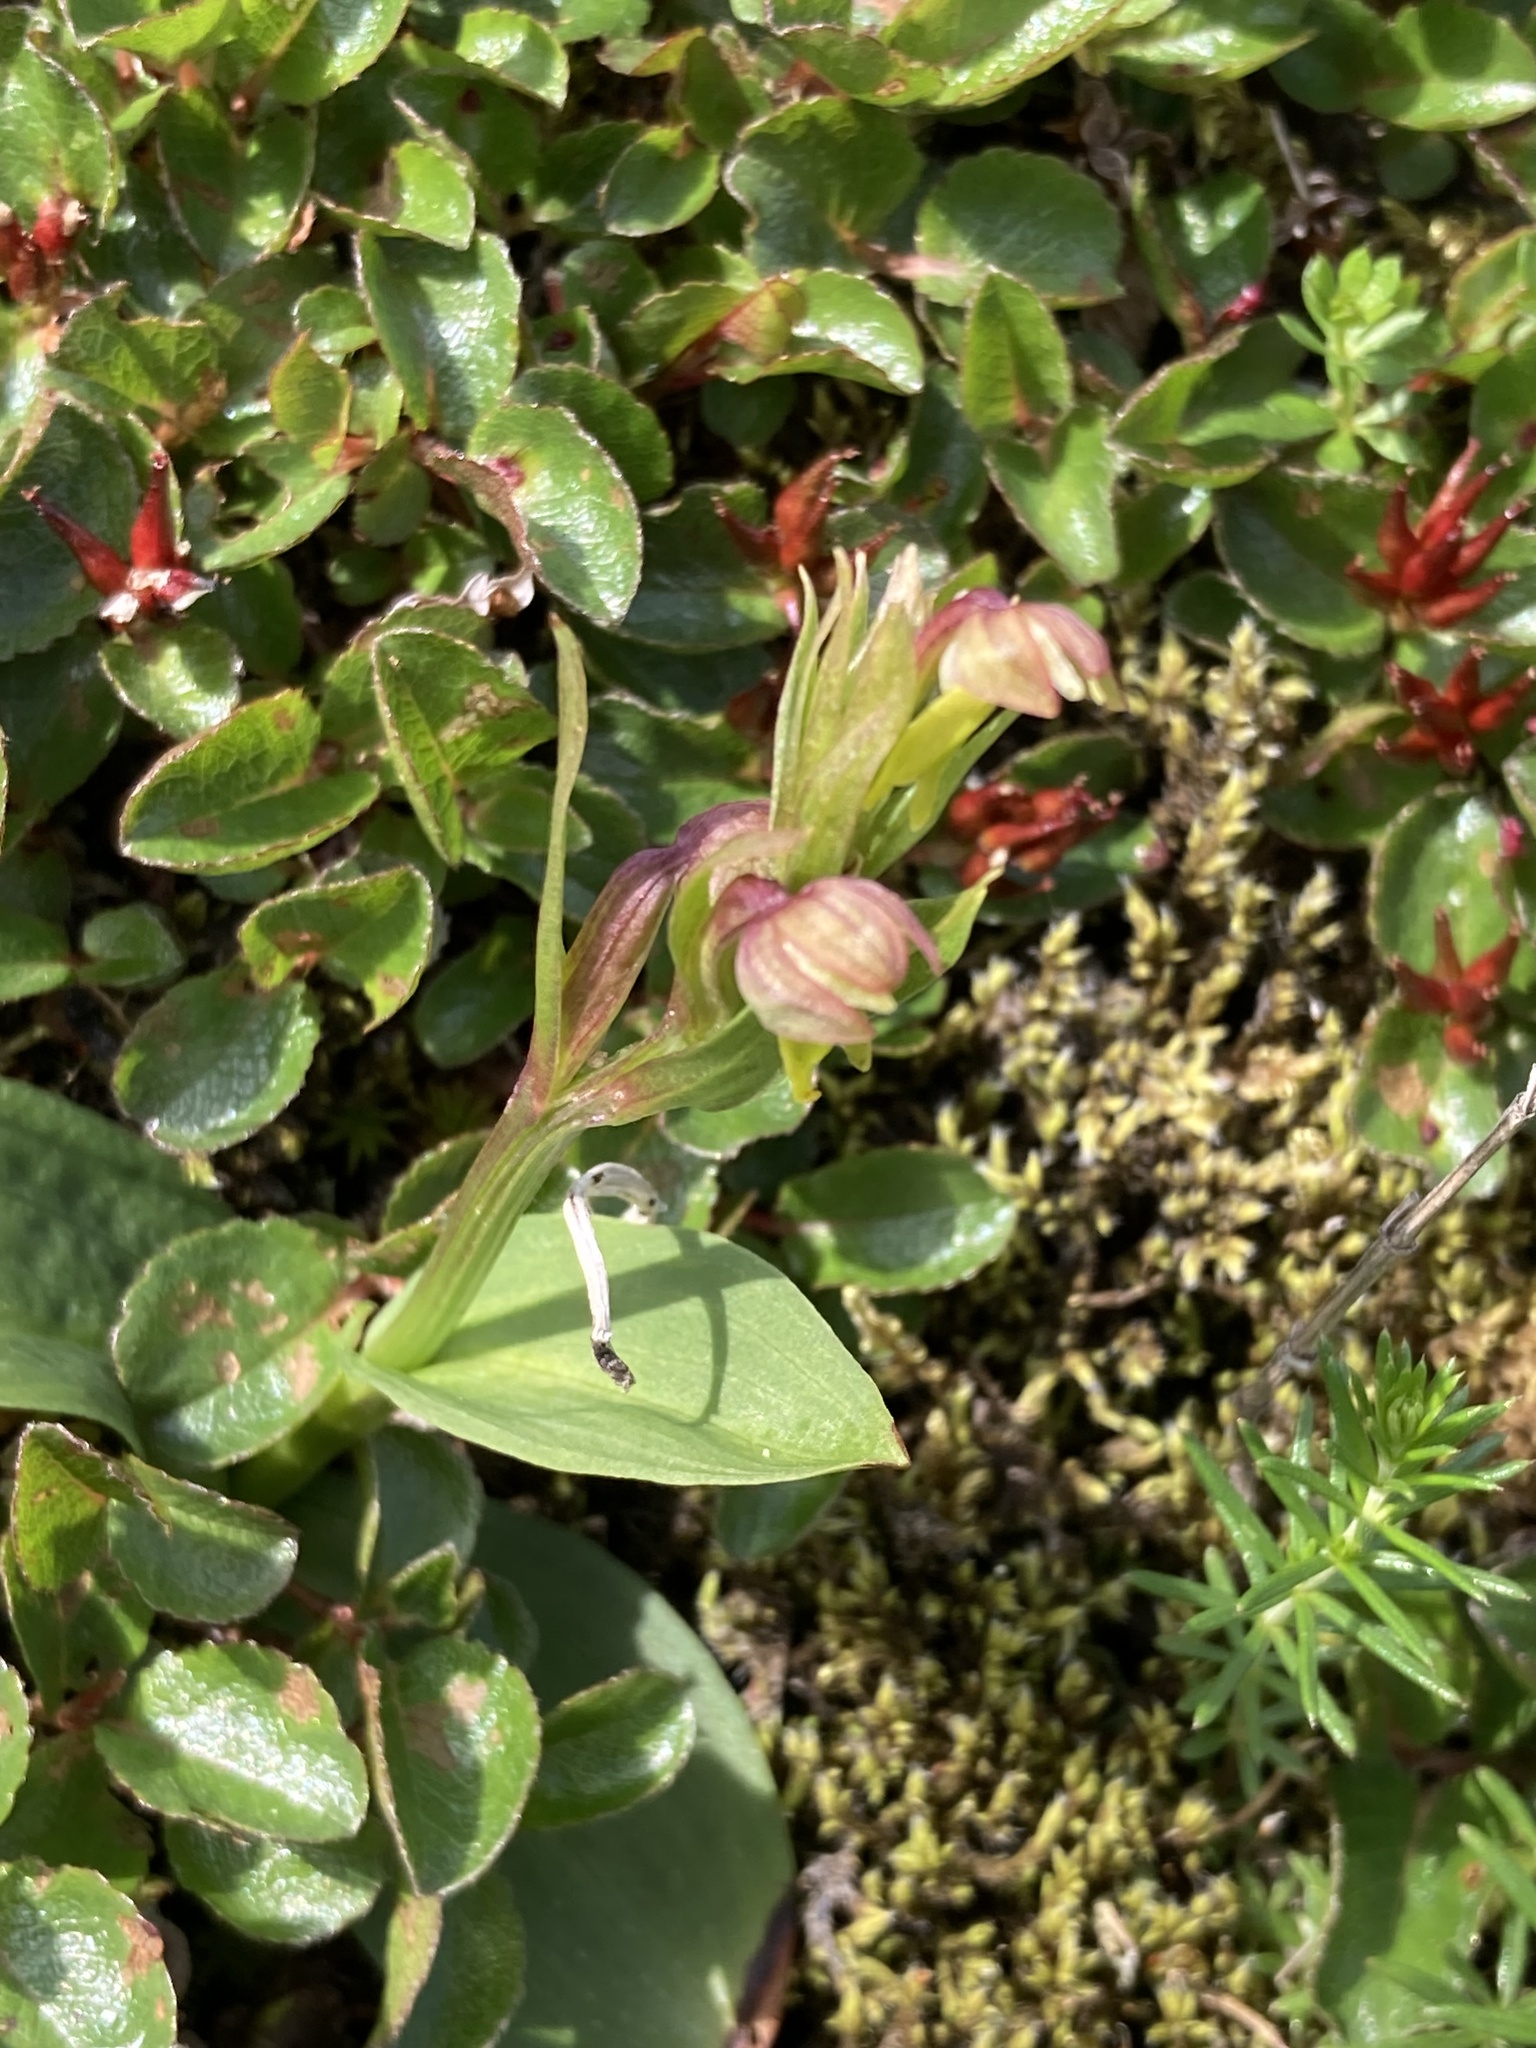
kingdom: Plantae
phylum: Tracheophyta
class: Liliopsida
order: Asparagales
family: Orchidaceae
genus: Dactylorhiza
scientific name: Dactylorhiza viridis
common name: Longbract frog orchid
